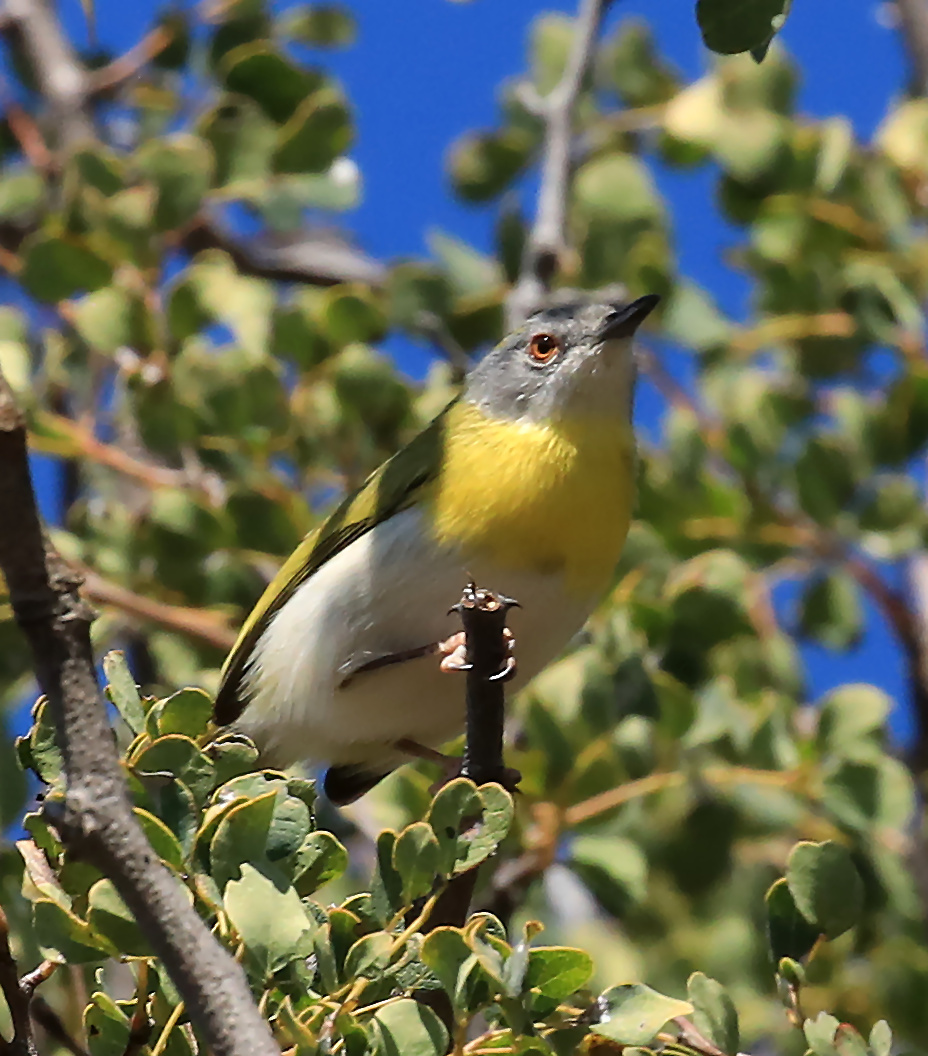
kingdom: Animalia
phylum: Chordata
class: Aves
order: Passeriformes
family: Cisticolidae
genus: Apalis
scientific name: Apalis flavida
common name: Yellow-breasted apalis
